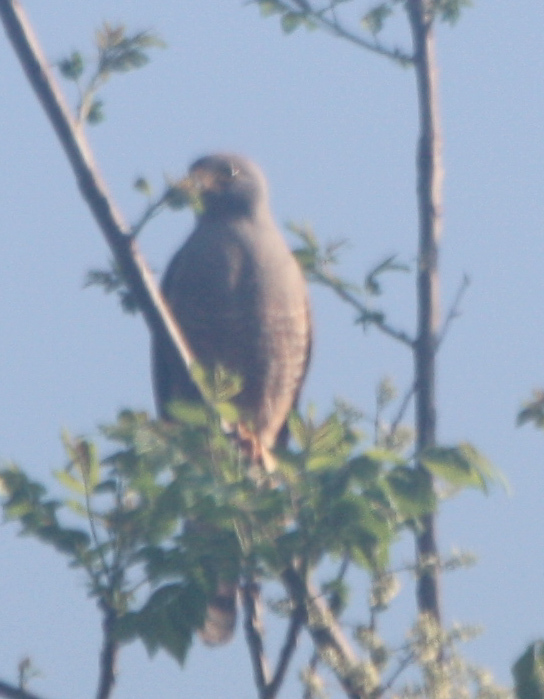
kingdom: Animalia
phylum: Chordata
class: Aves
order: Accipitriformes
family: Accipitridae
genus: Rupornis
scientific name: Rupornis magnirostris
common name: Roadside hawk
